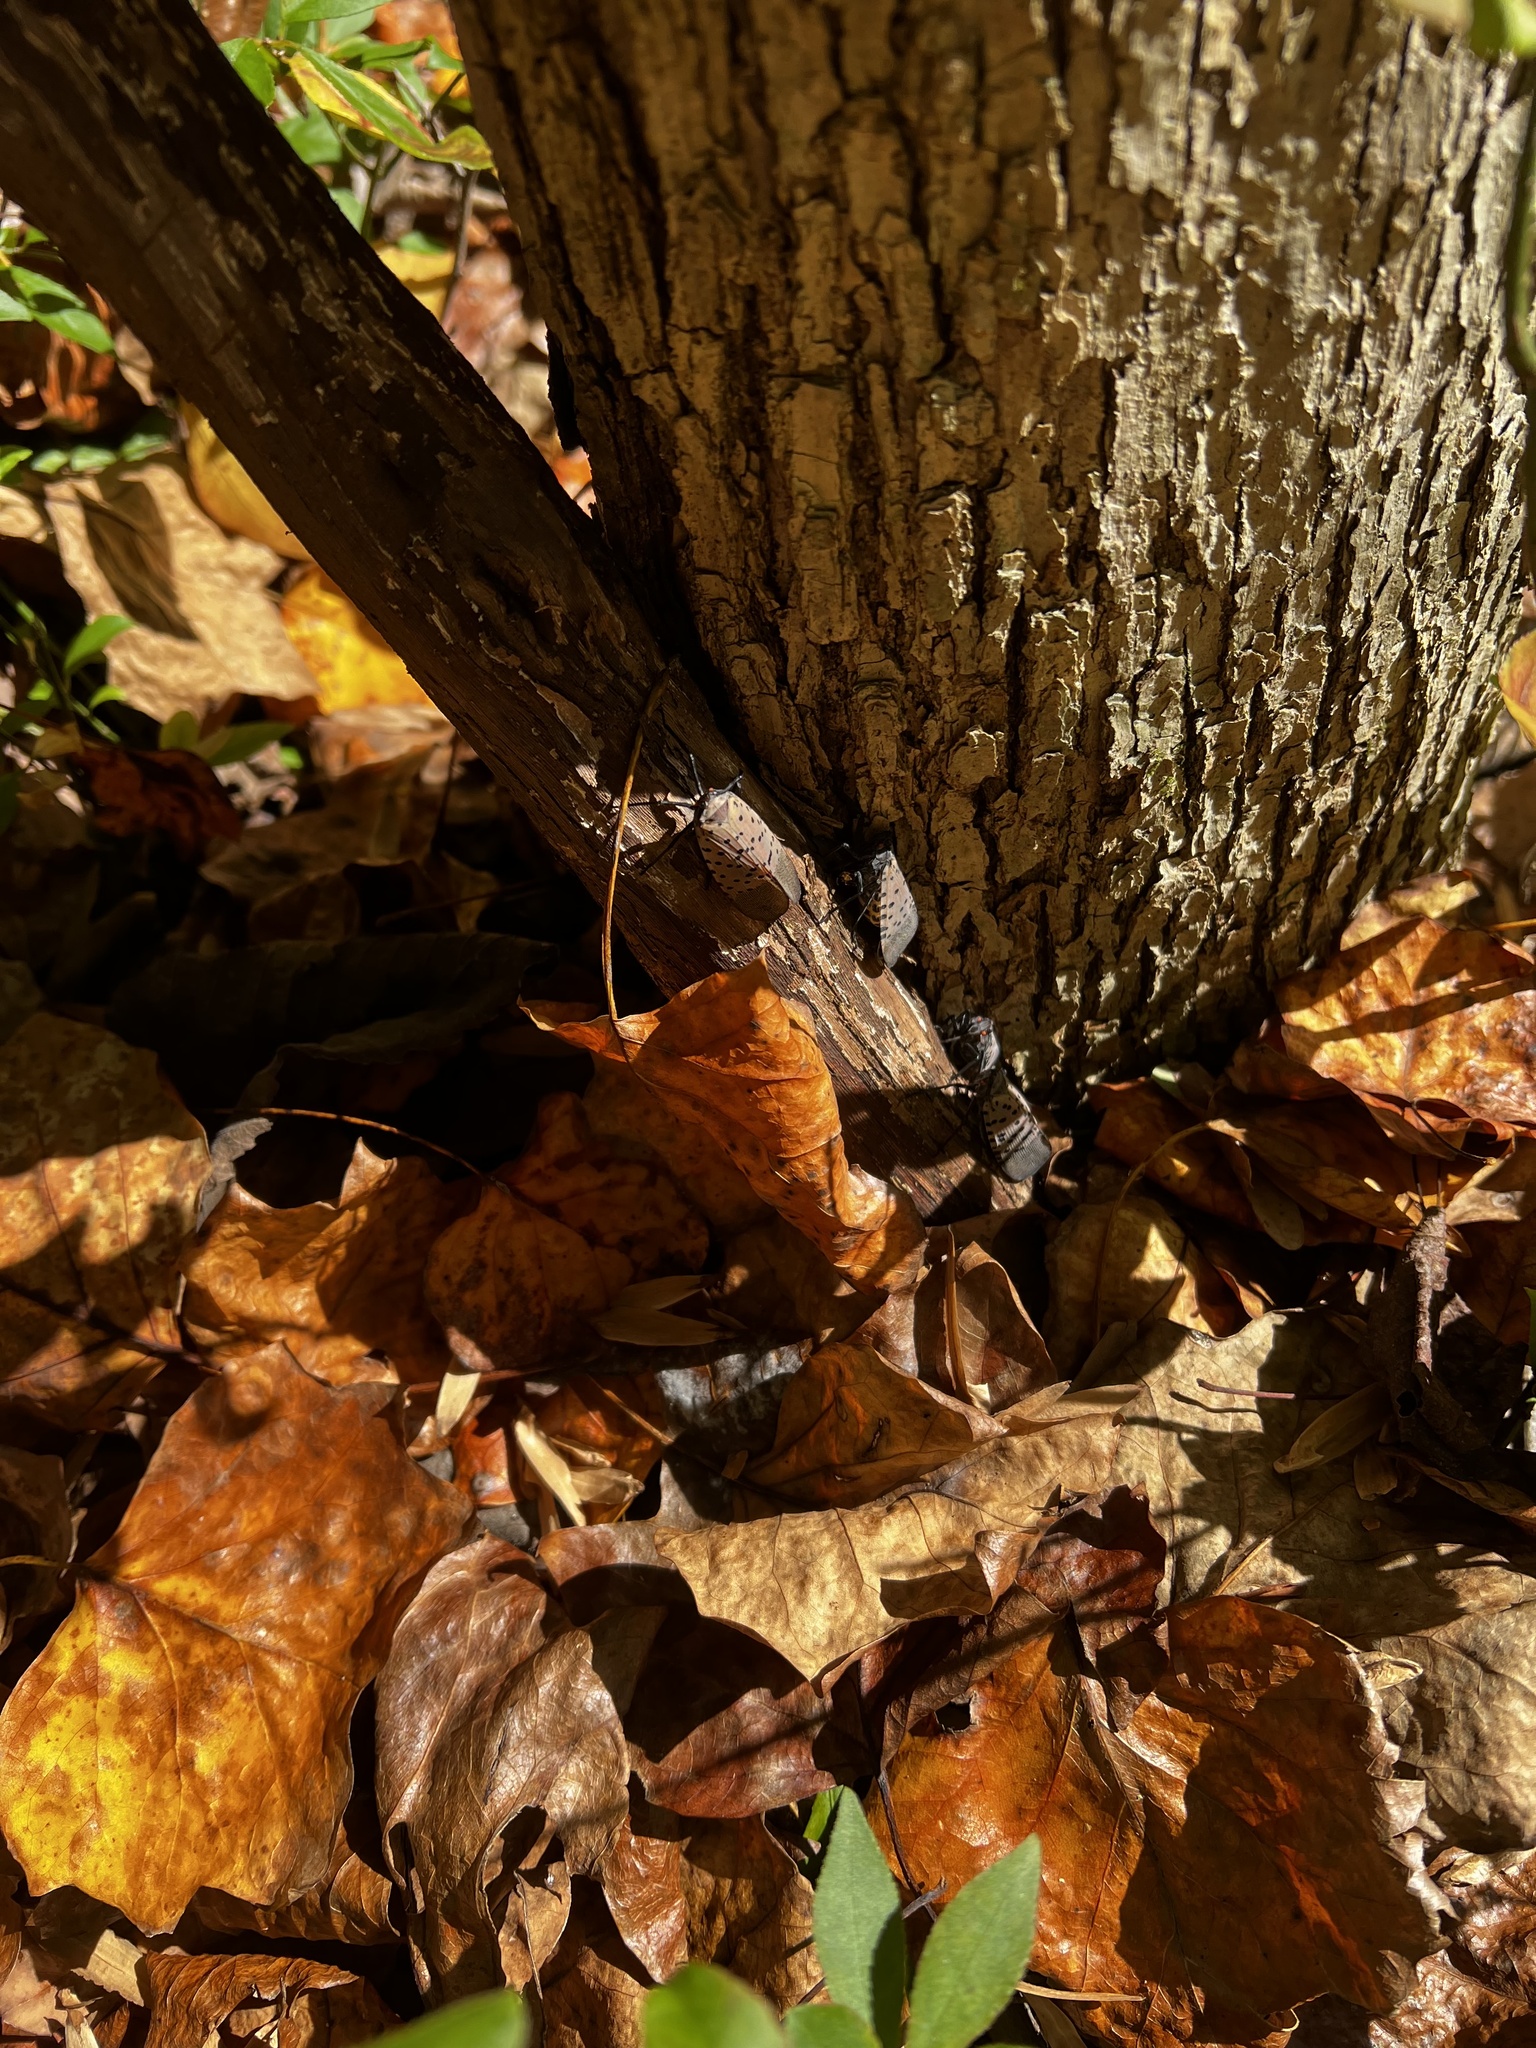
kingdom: Animalia
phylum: Arthropoda
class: Insecta
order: Hemiptera
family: Fulgoridae
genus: Lycorma
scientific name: Lycorma delicatula
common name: Spotted lanternfly
